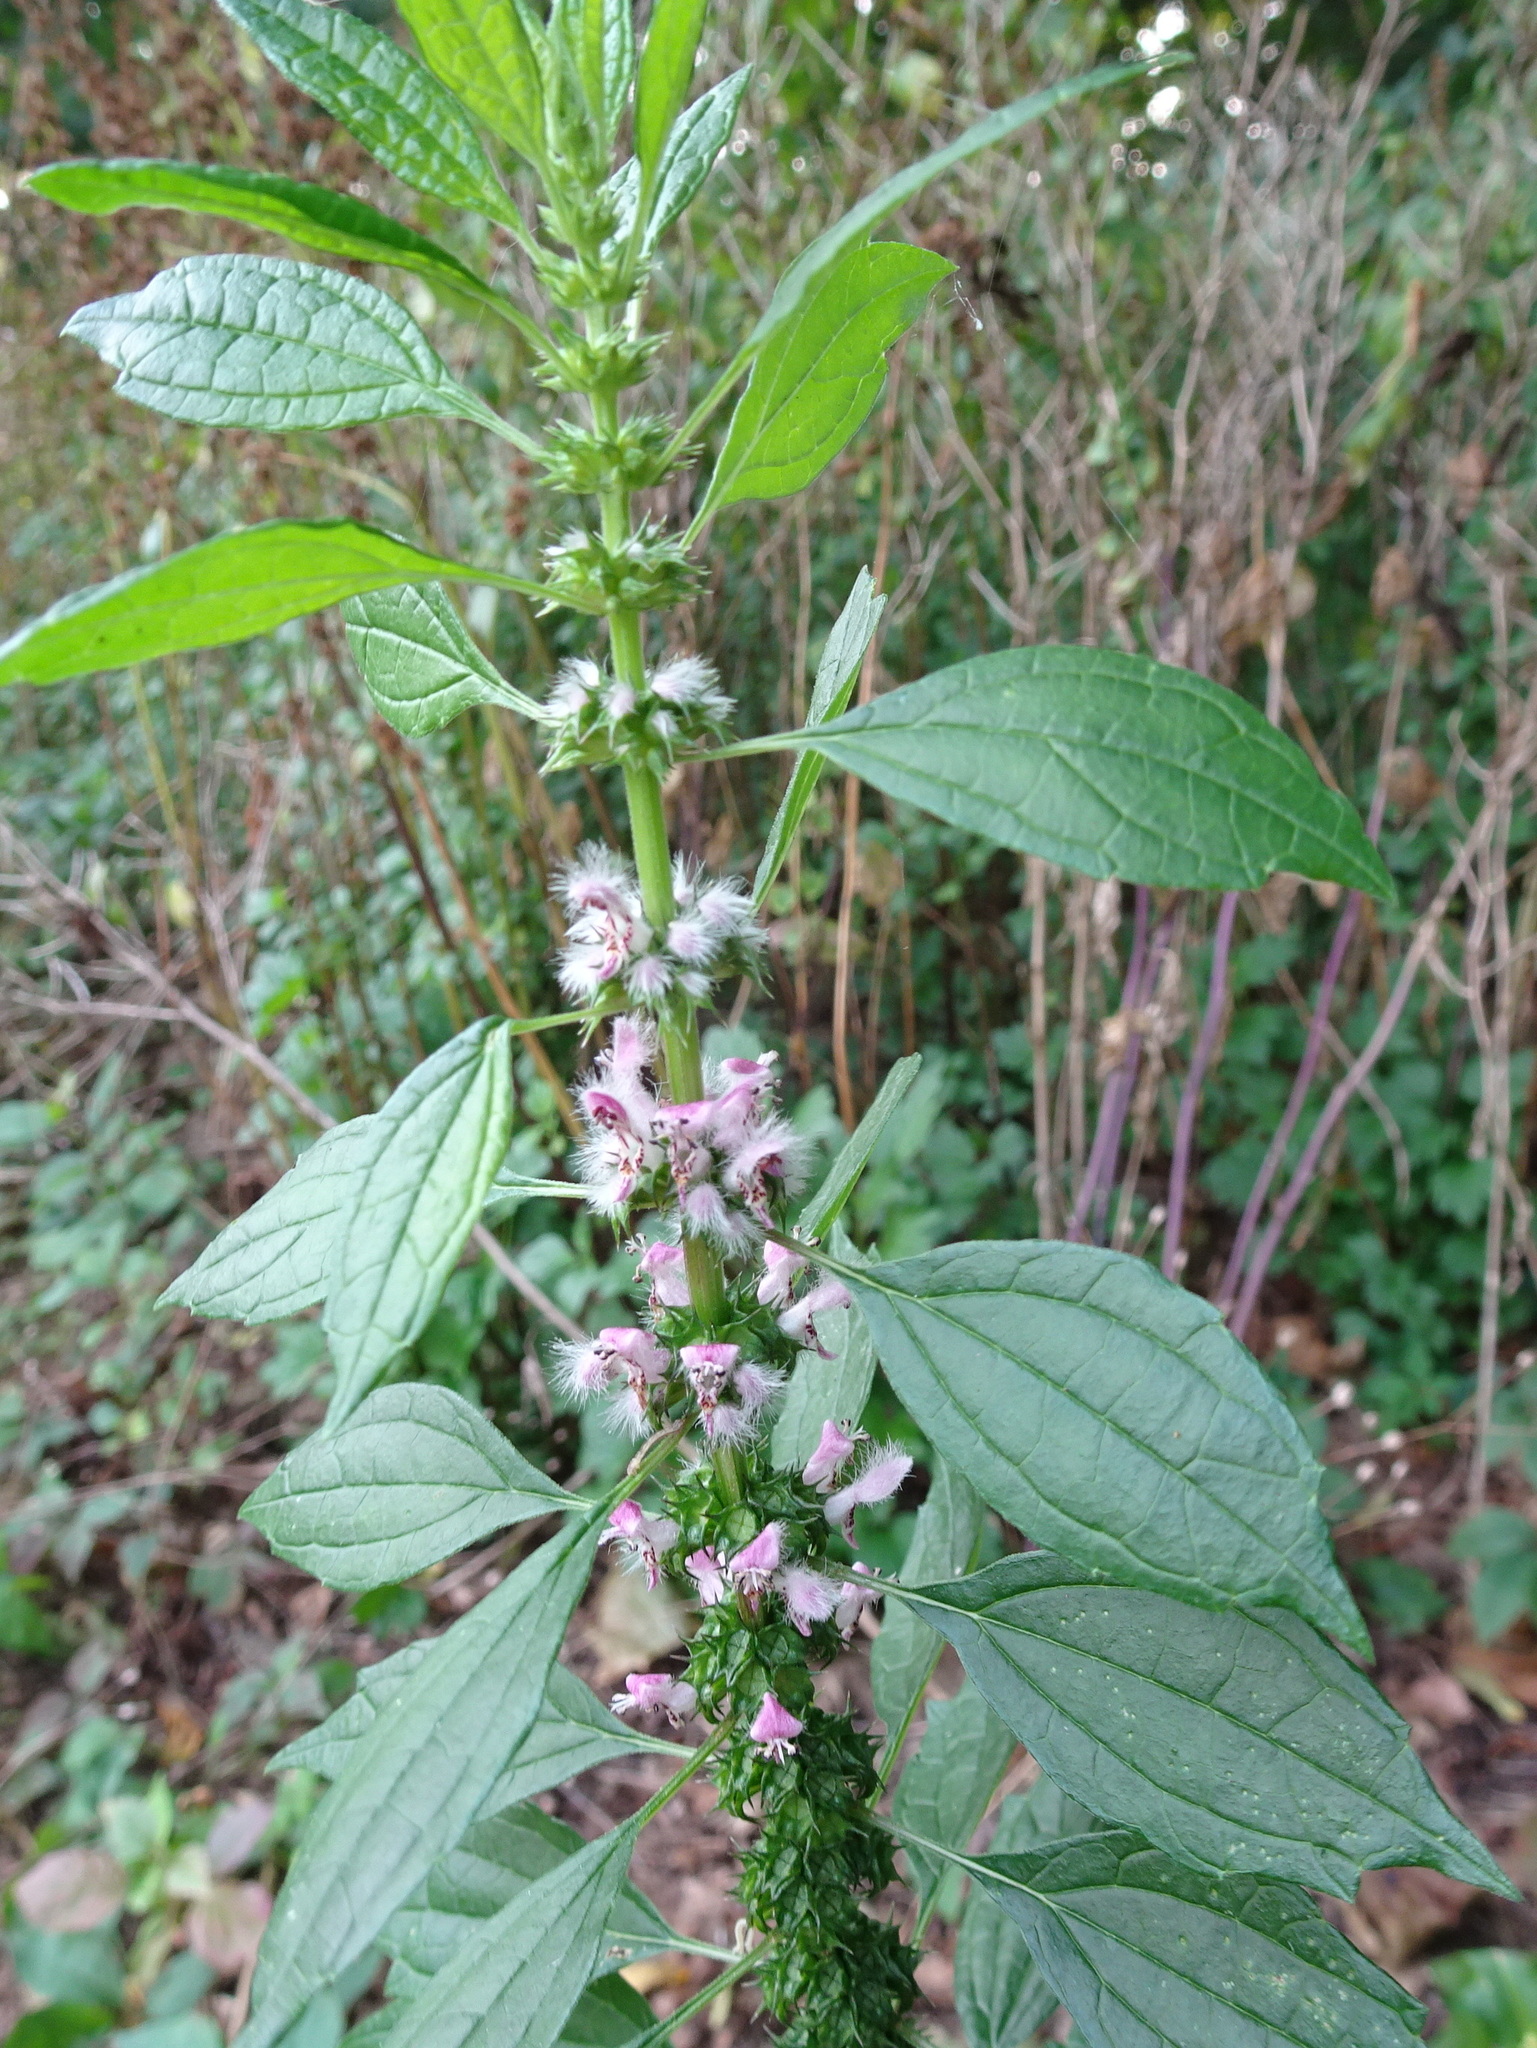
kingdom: Plantae
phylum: Tracheophyta
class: Magnoliopsida
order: Lamiales
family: Lamiaceae
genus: Leonurus
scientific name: Leonurus cardiaca
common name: Motherwort
